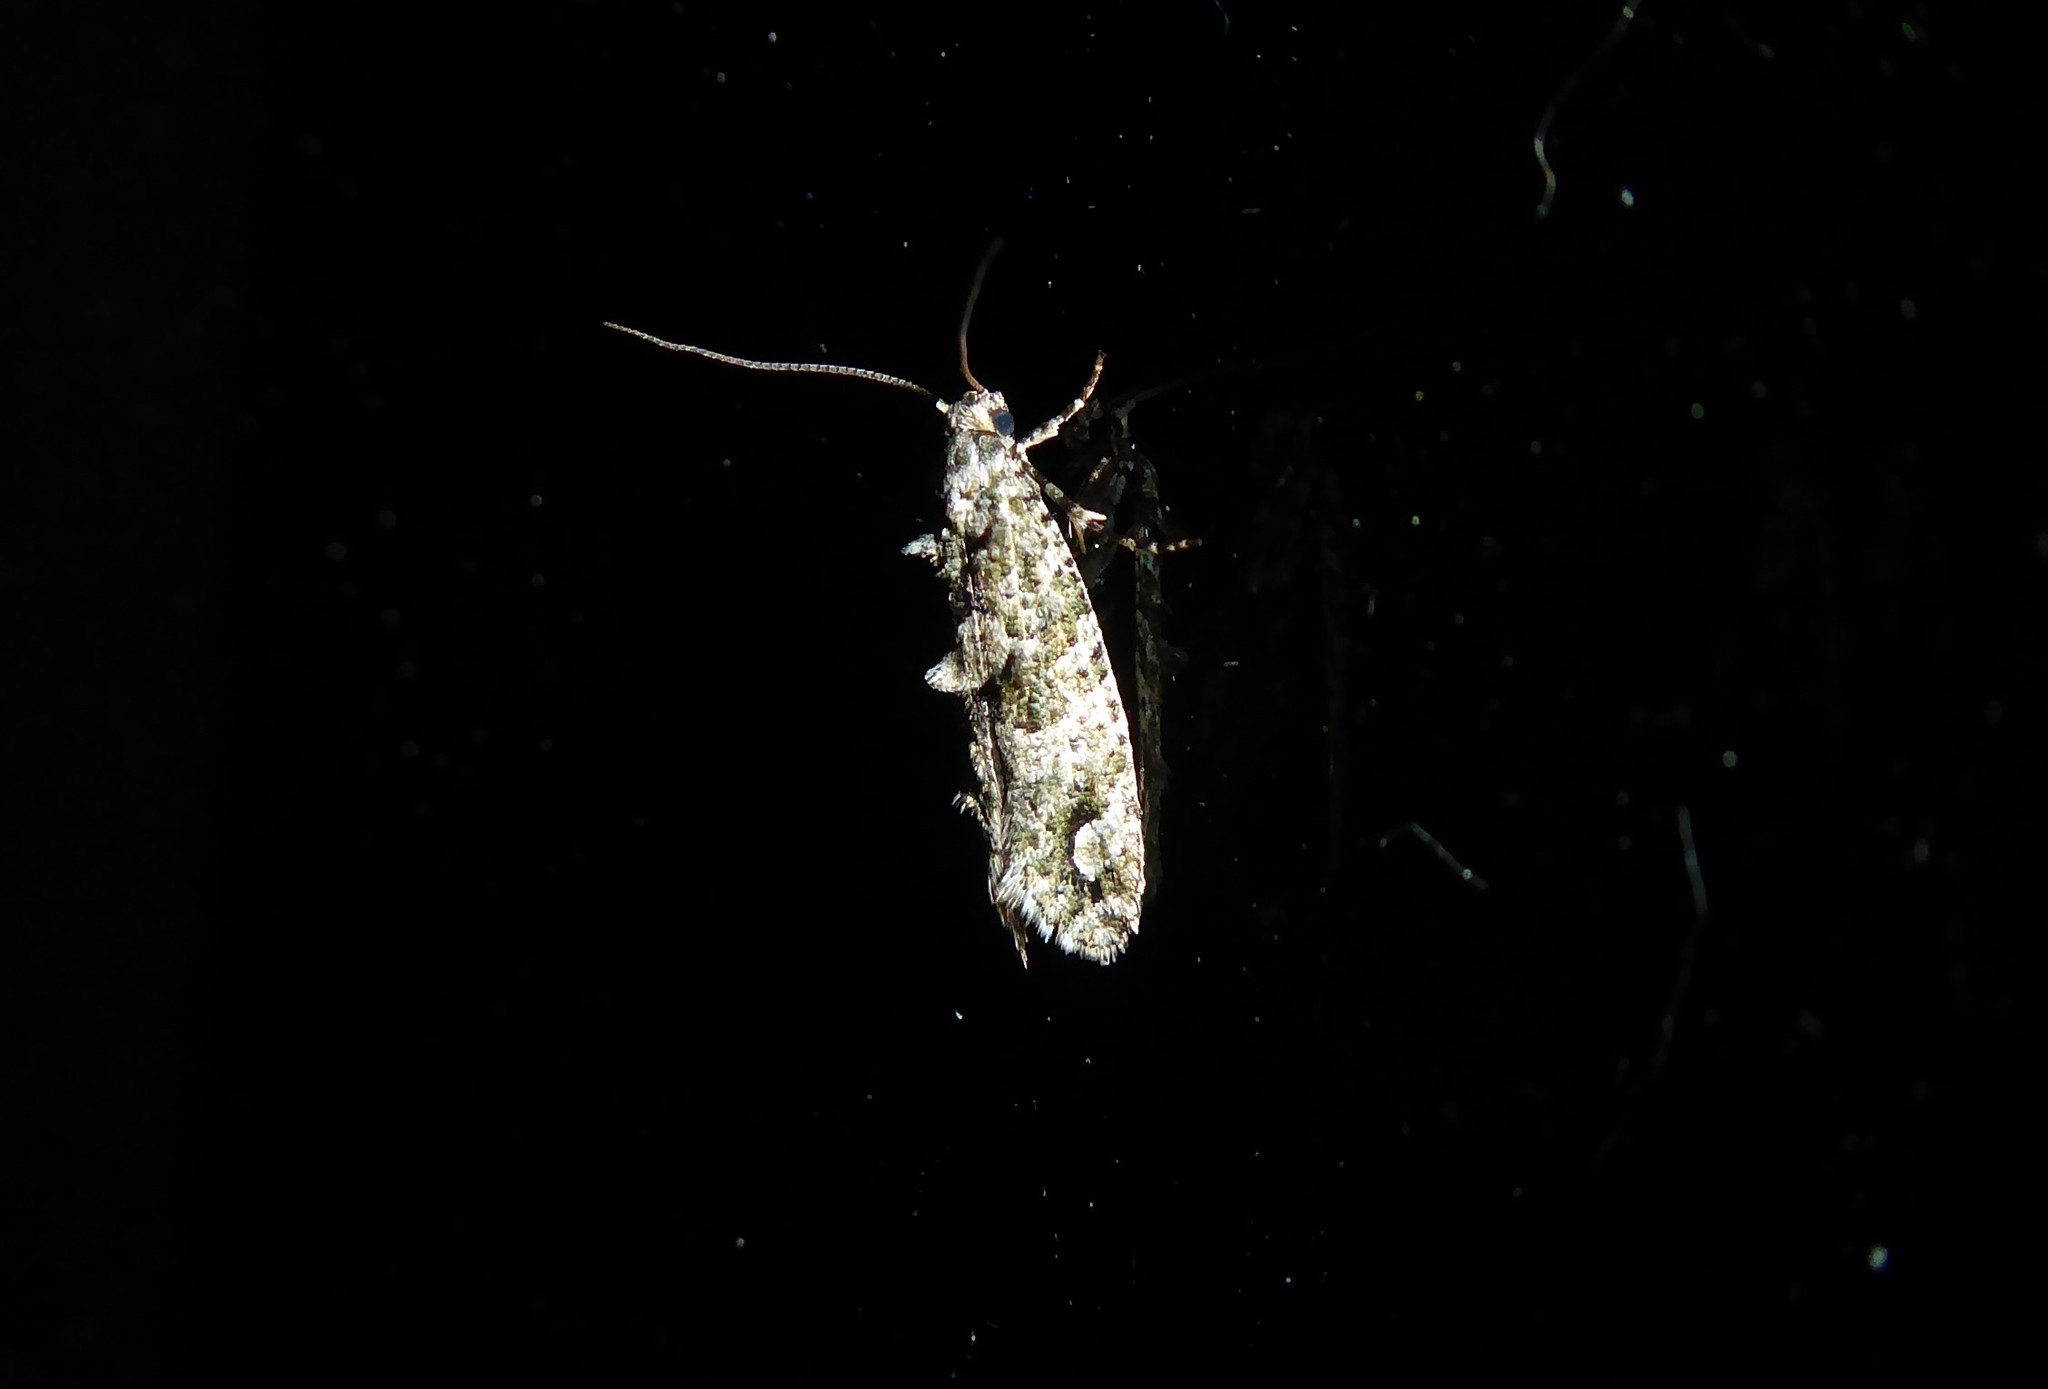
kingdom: Animalia
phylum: Arthropoda
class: Insecta
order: Lepidoptera
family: Tineidae
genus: Lysiphragma
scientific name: Lysiphragma howesii
